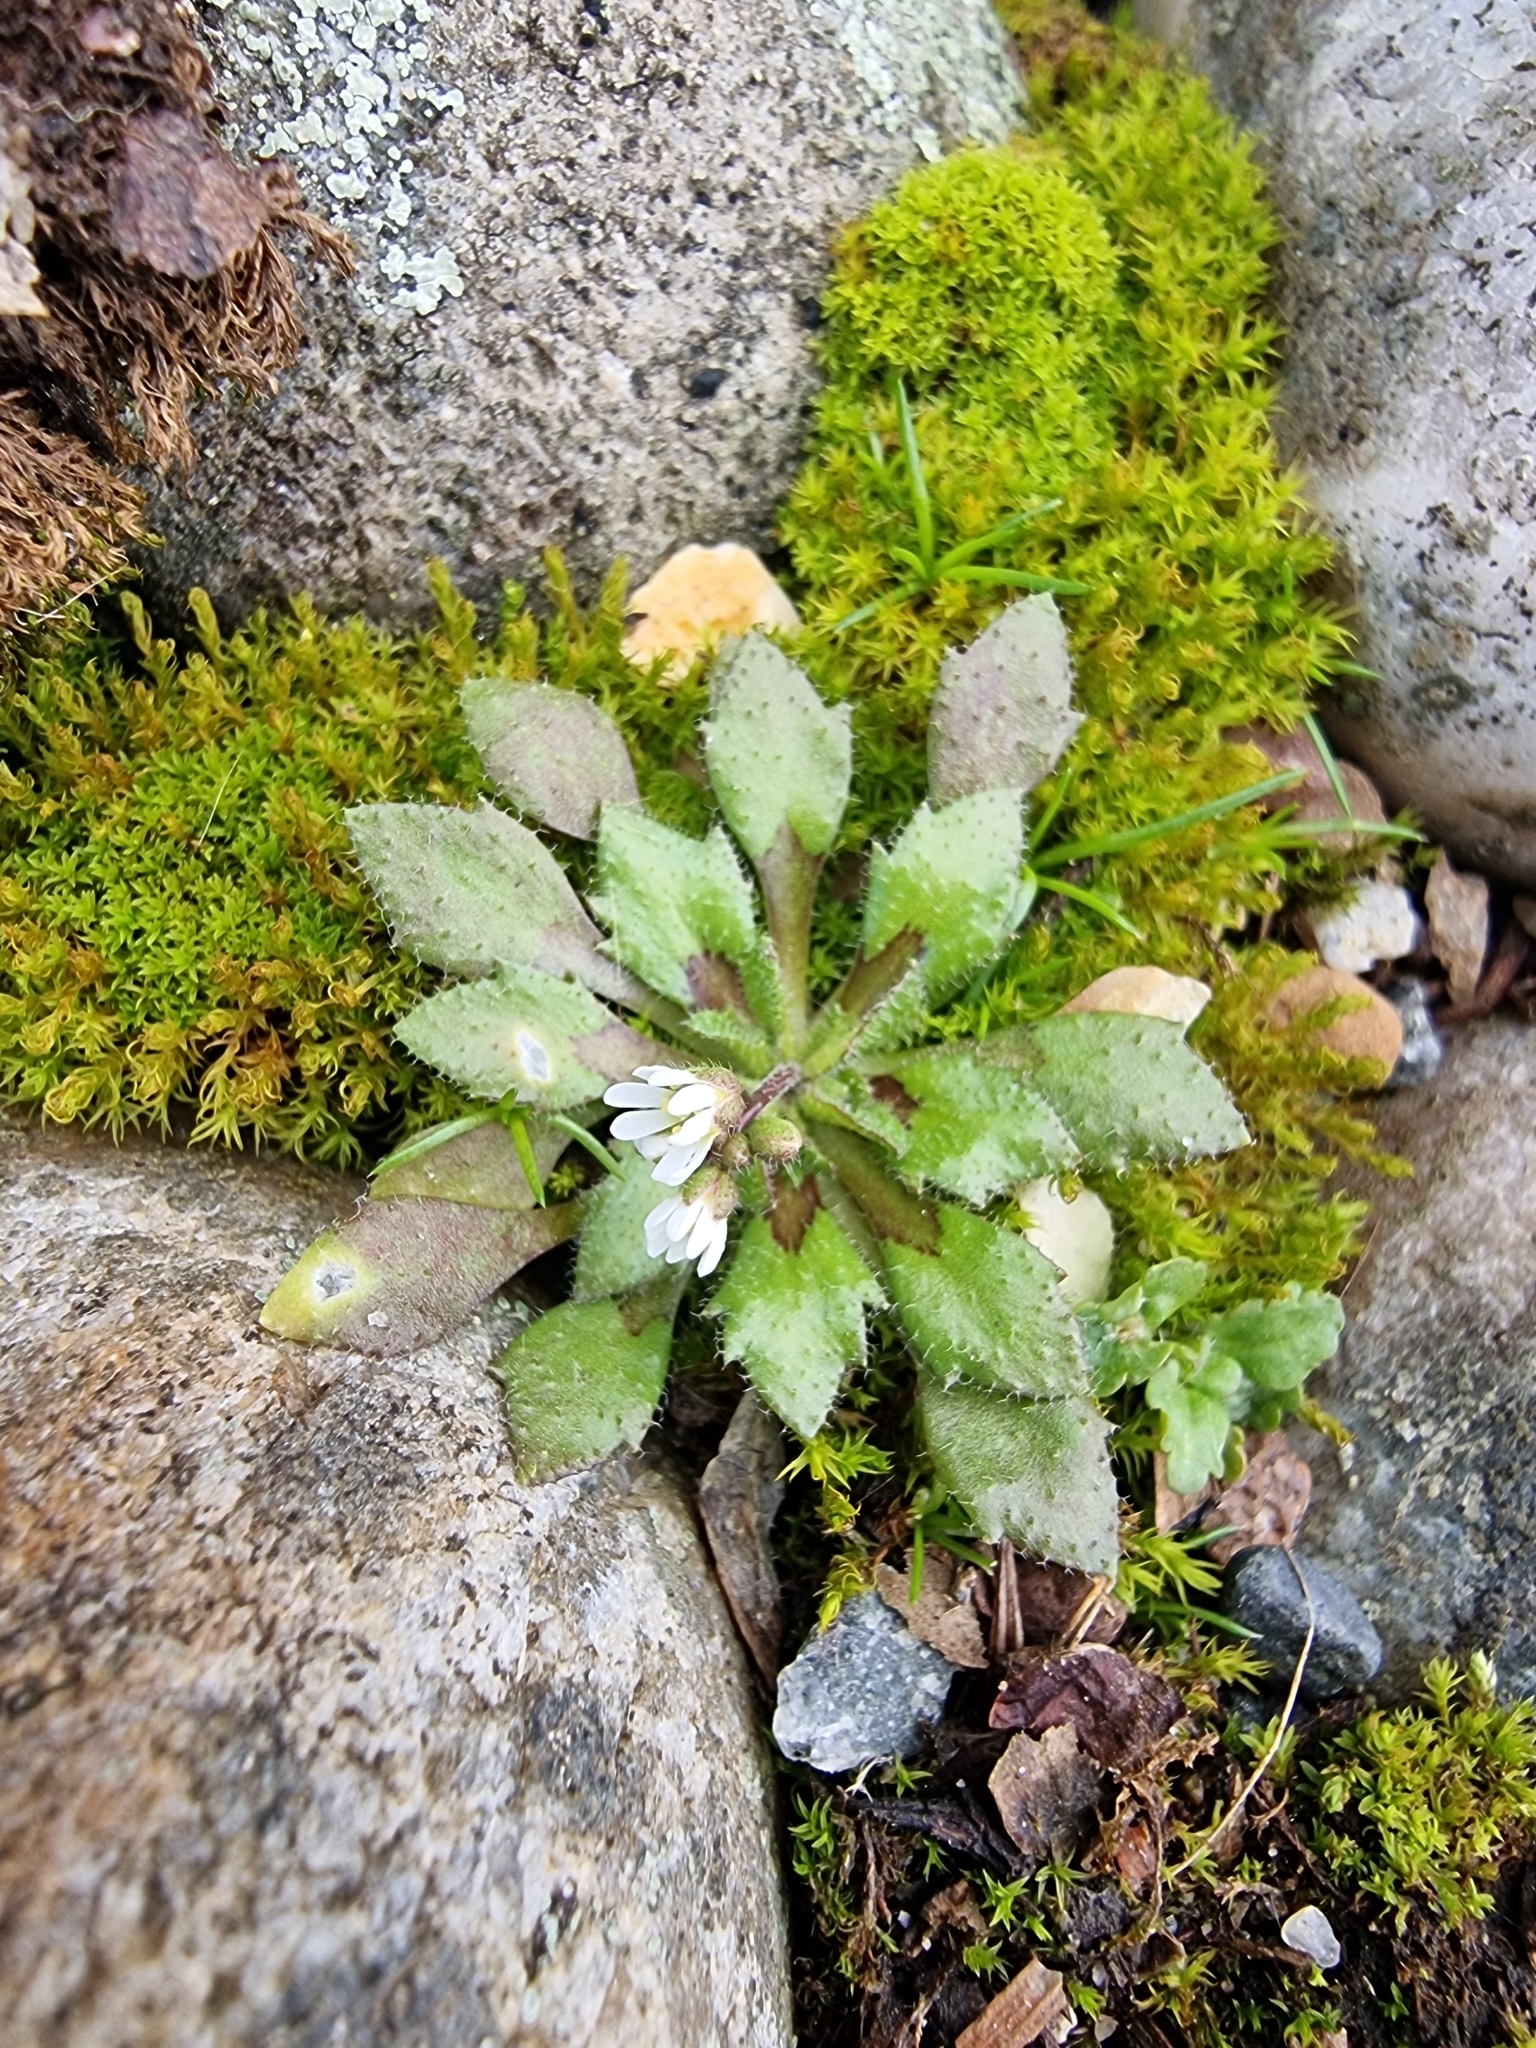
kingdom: Plantae
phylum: Tracheophyta
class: Magnoliopsida
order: Brassicales
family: Brassicaceae
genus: Draba
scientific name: Draba verna
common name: Spring draba
